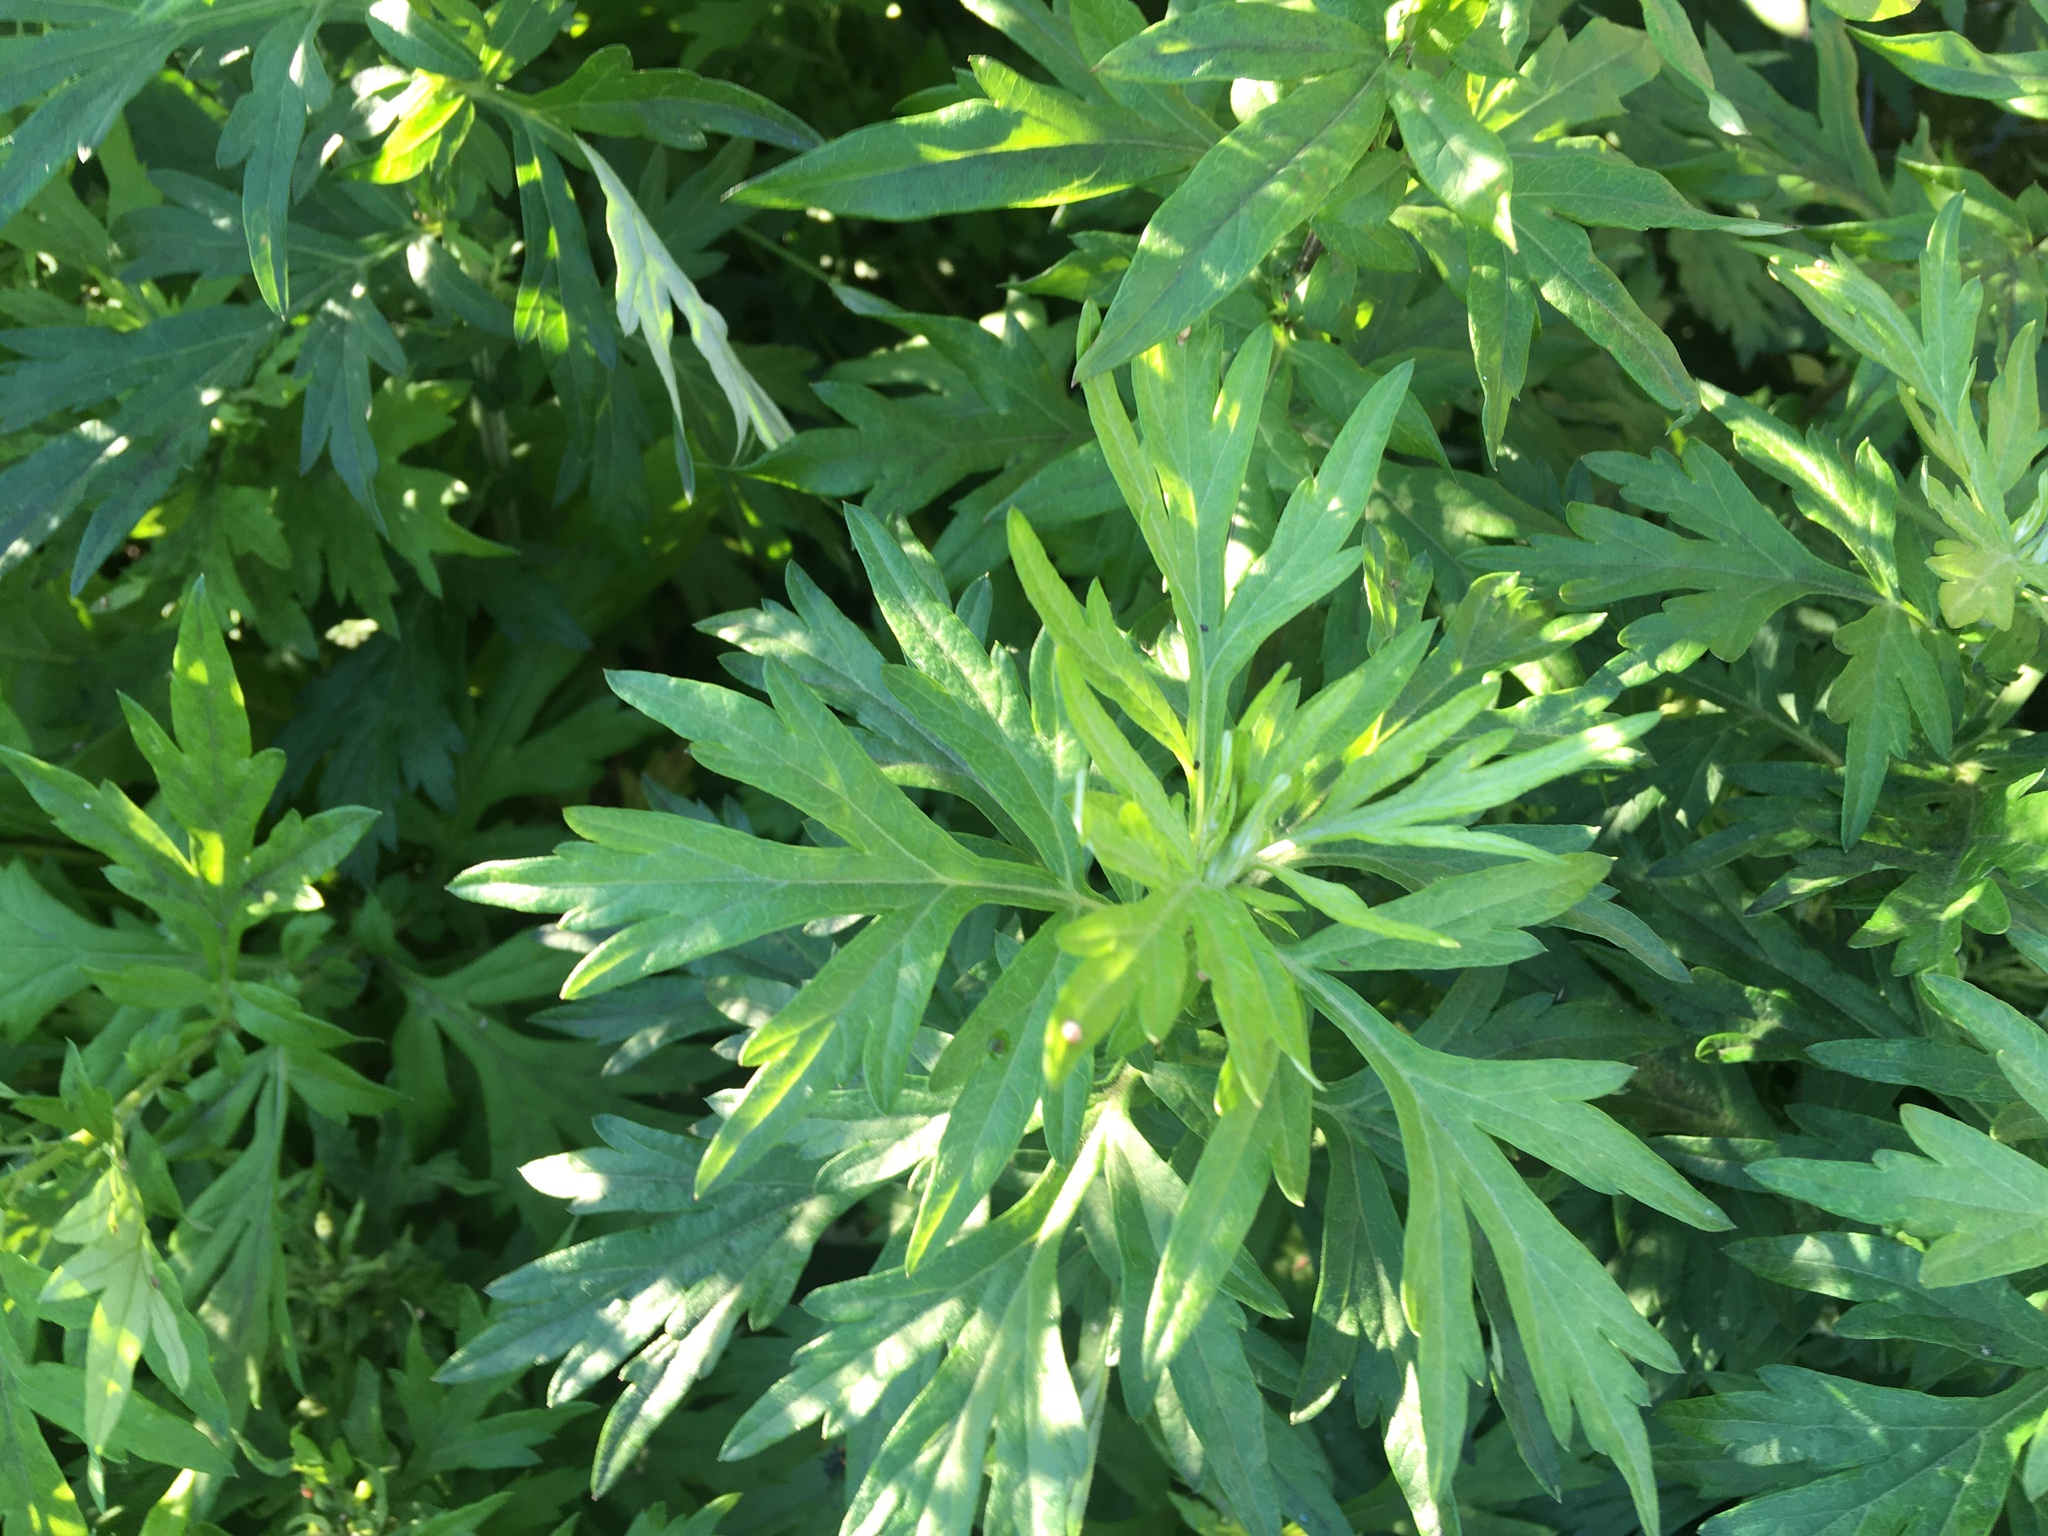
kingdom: Plantae
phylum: Tracheophyta
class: Magnoliopsida
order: Asterales
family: Asteraceae
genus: Artemisia
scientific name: Artemisia vulgaris
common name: Mugwort
